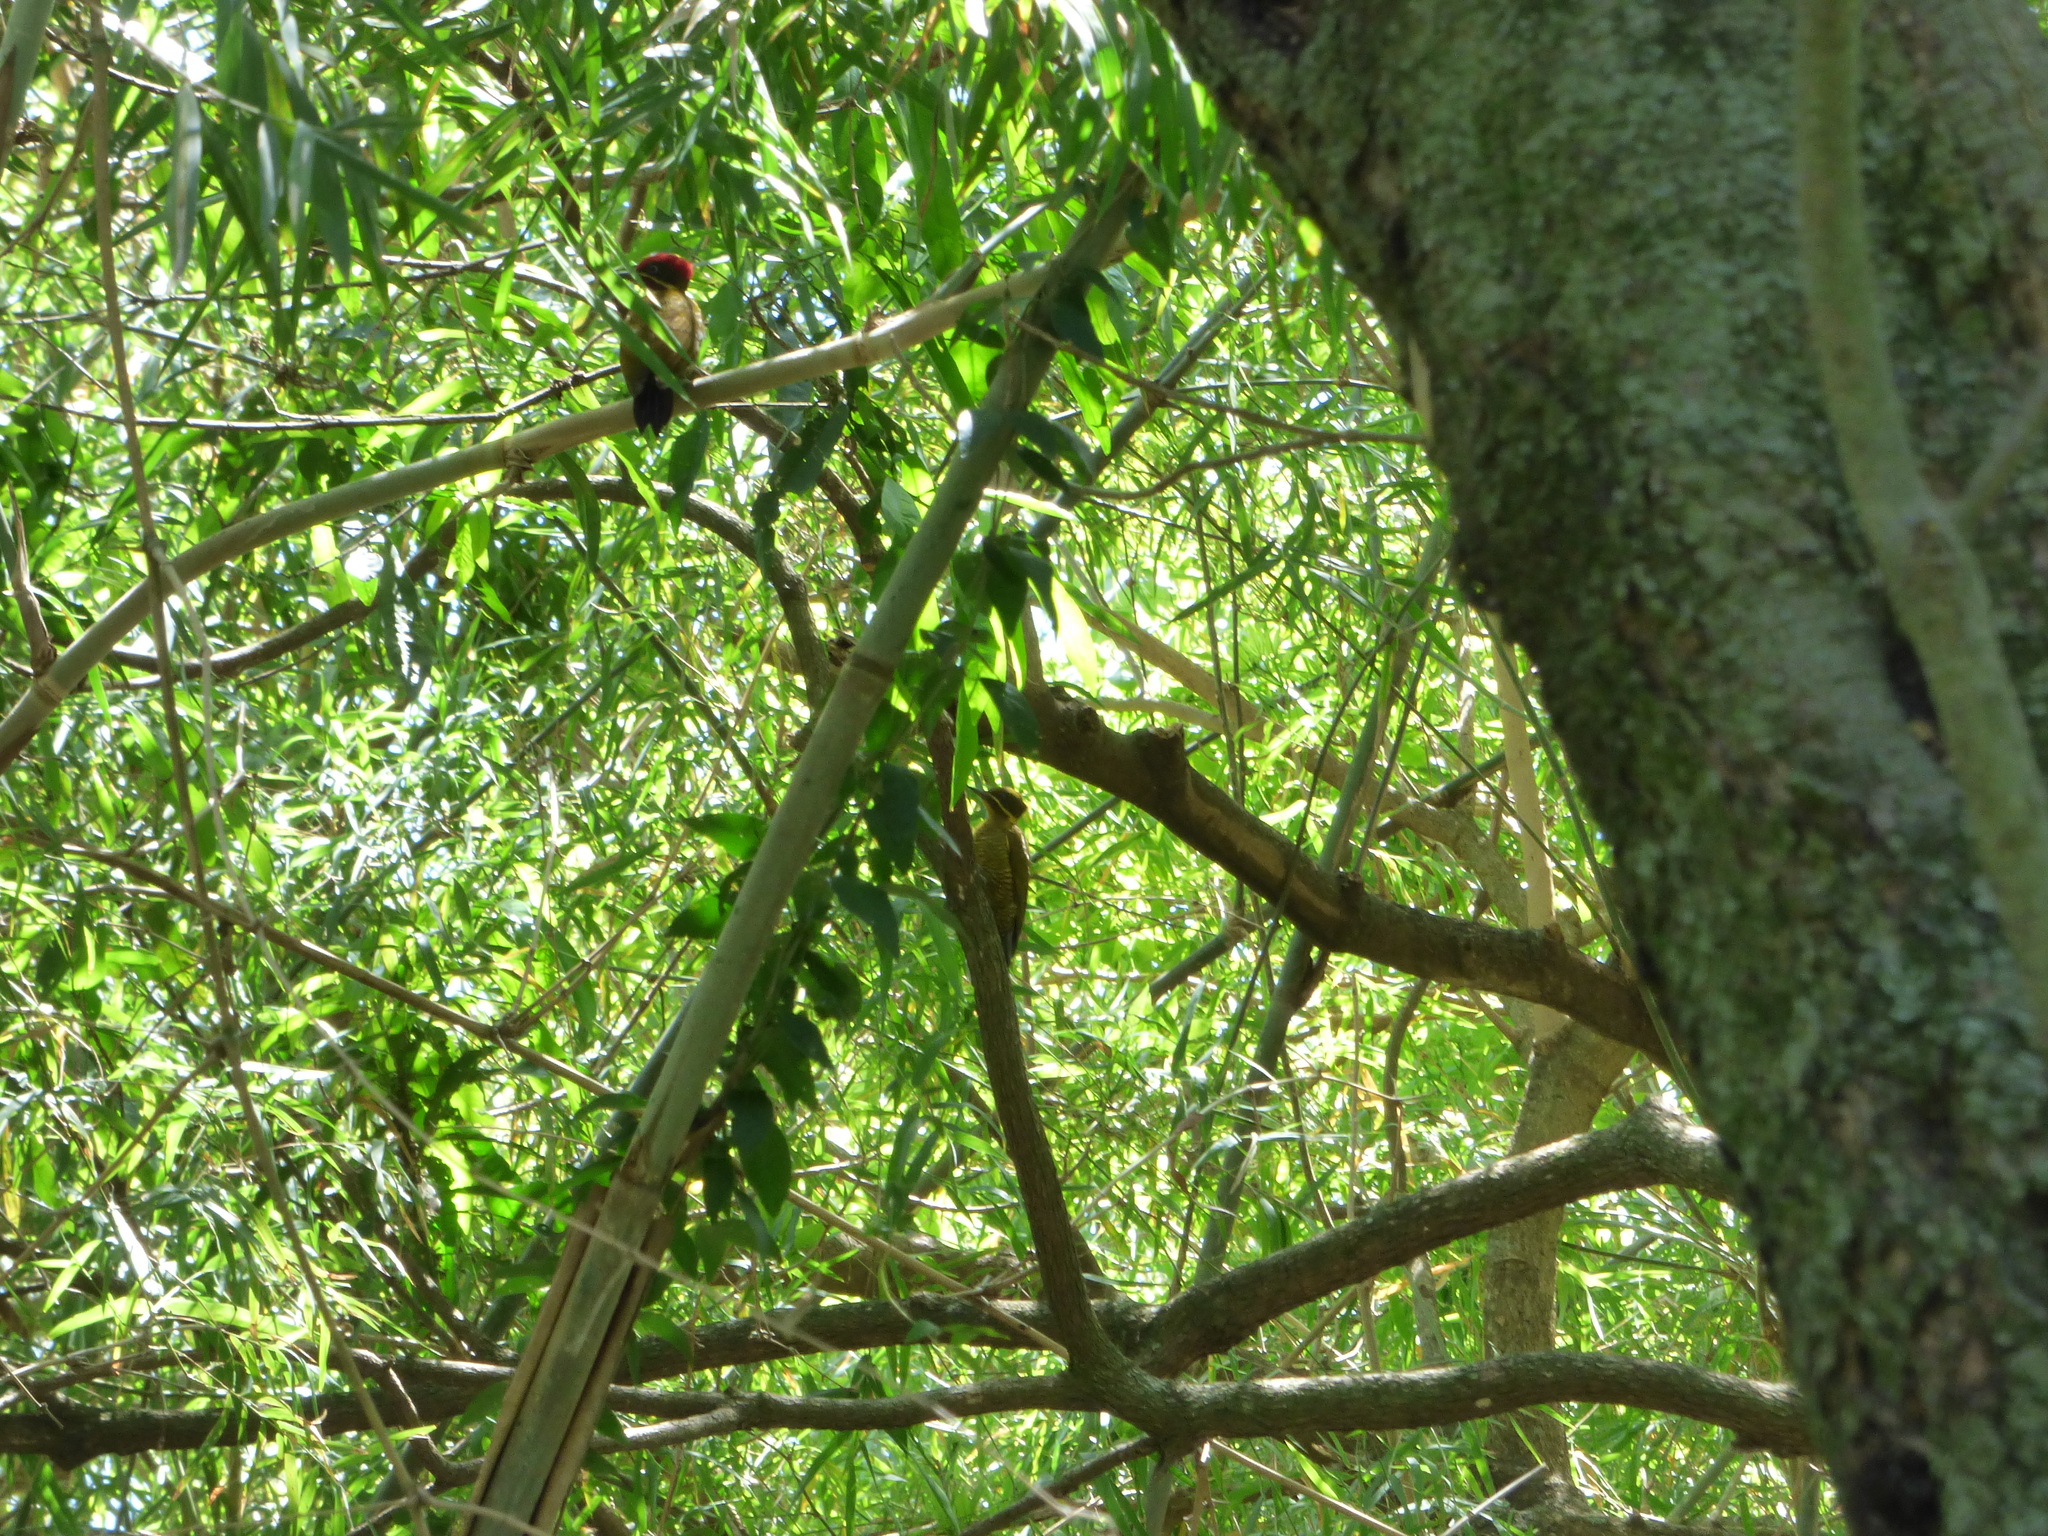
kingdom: Animalia
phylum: Chordata
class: Aves
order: Piciformes
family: Picidae
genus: Piculus
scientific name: Piculus chrysochloros
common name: Golden-green woodpecker
